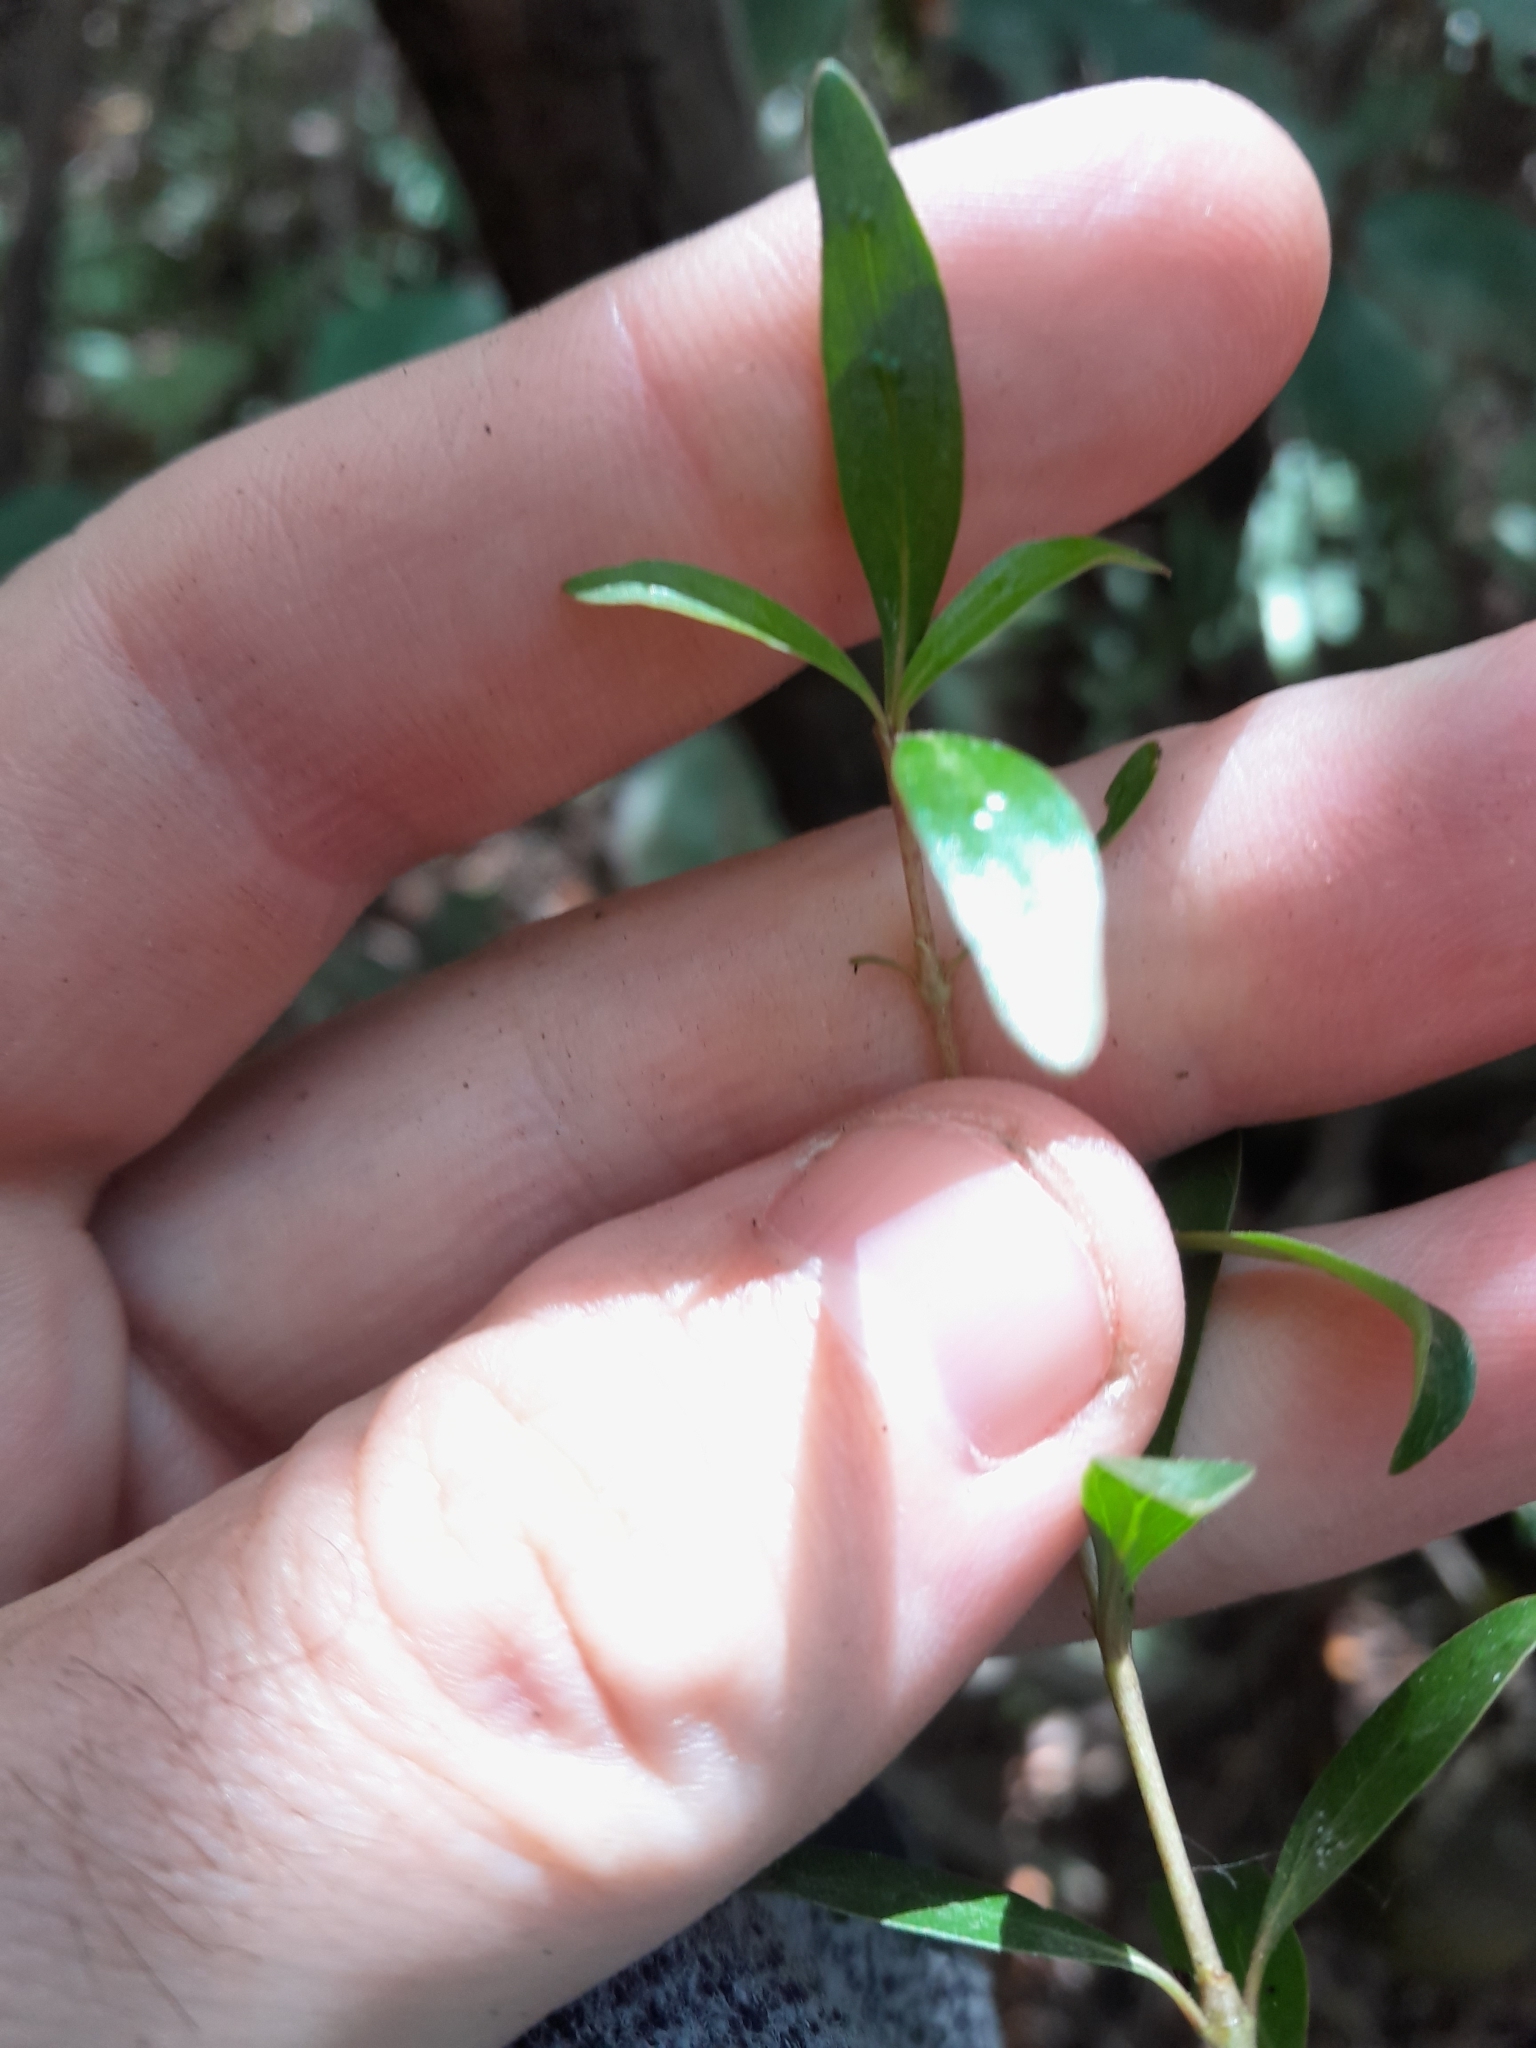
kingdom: Plantae
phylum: Tracheophyta
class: Magnoliopsida
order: Gentianales
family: Rubiaceae
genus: Coprosma
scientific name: Coprosma cunninghamii
